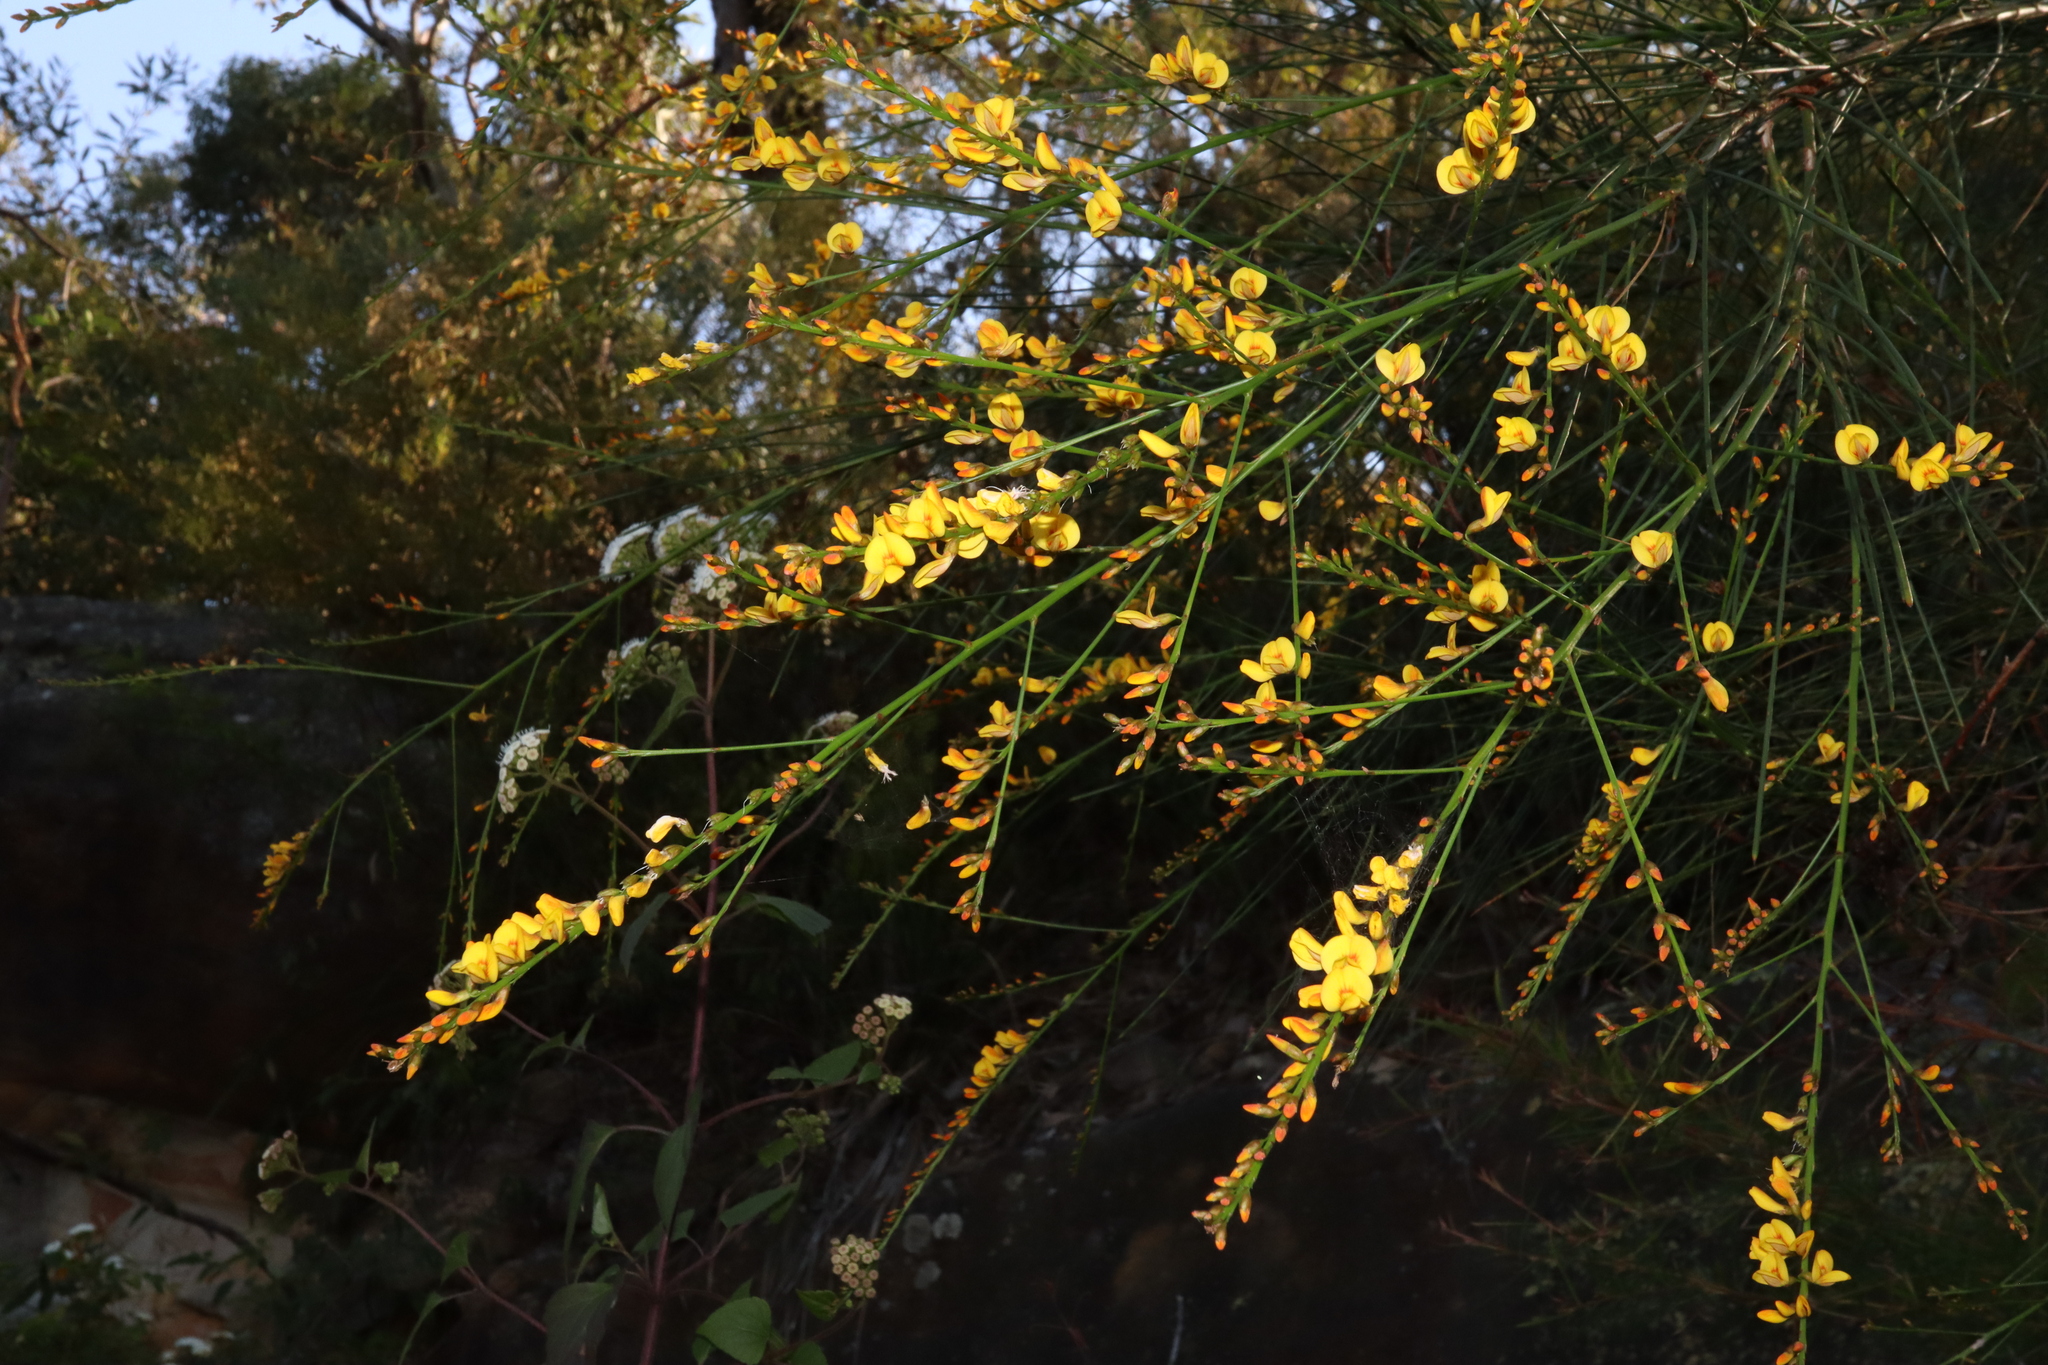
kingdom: Plantae
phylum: Tracheophyta
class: Magnoliopsida
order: Fabales
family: Fabaceae
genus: Viminaria
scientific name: Viminaria juncea
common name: Golden spray
